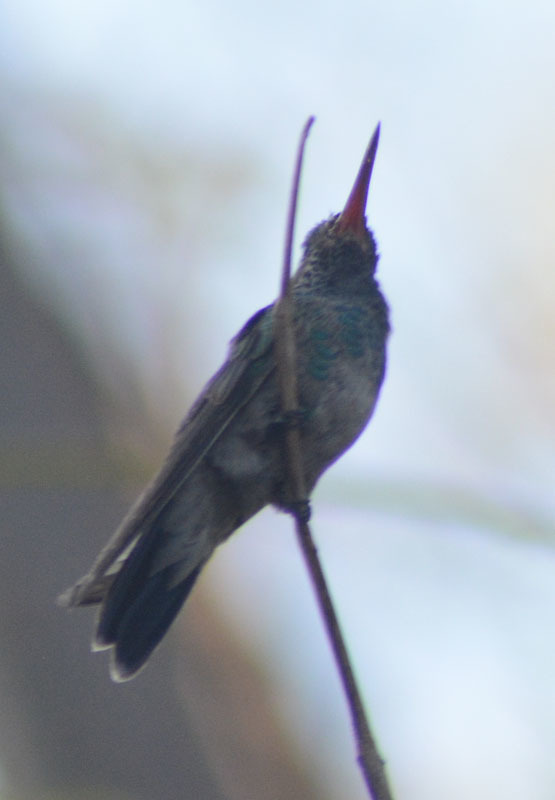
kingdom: Animalia
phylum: Chordata
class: Aves
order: Apodiformes
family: Trochilidae
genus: Cynanthus
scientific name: Cynanthus latirostris
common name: Broad-billed hummingbird
